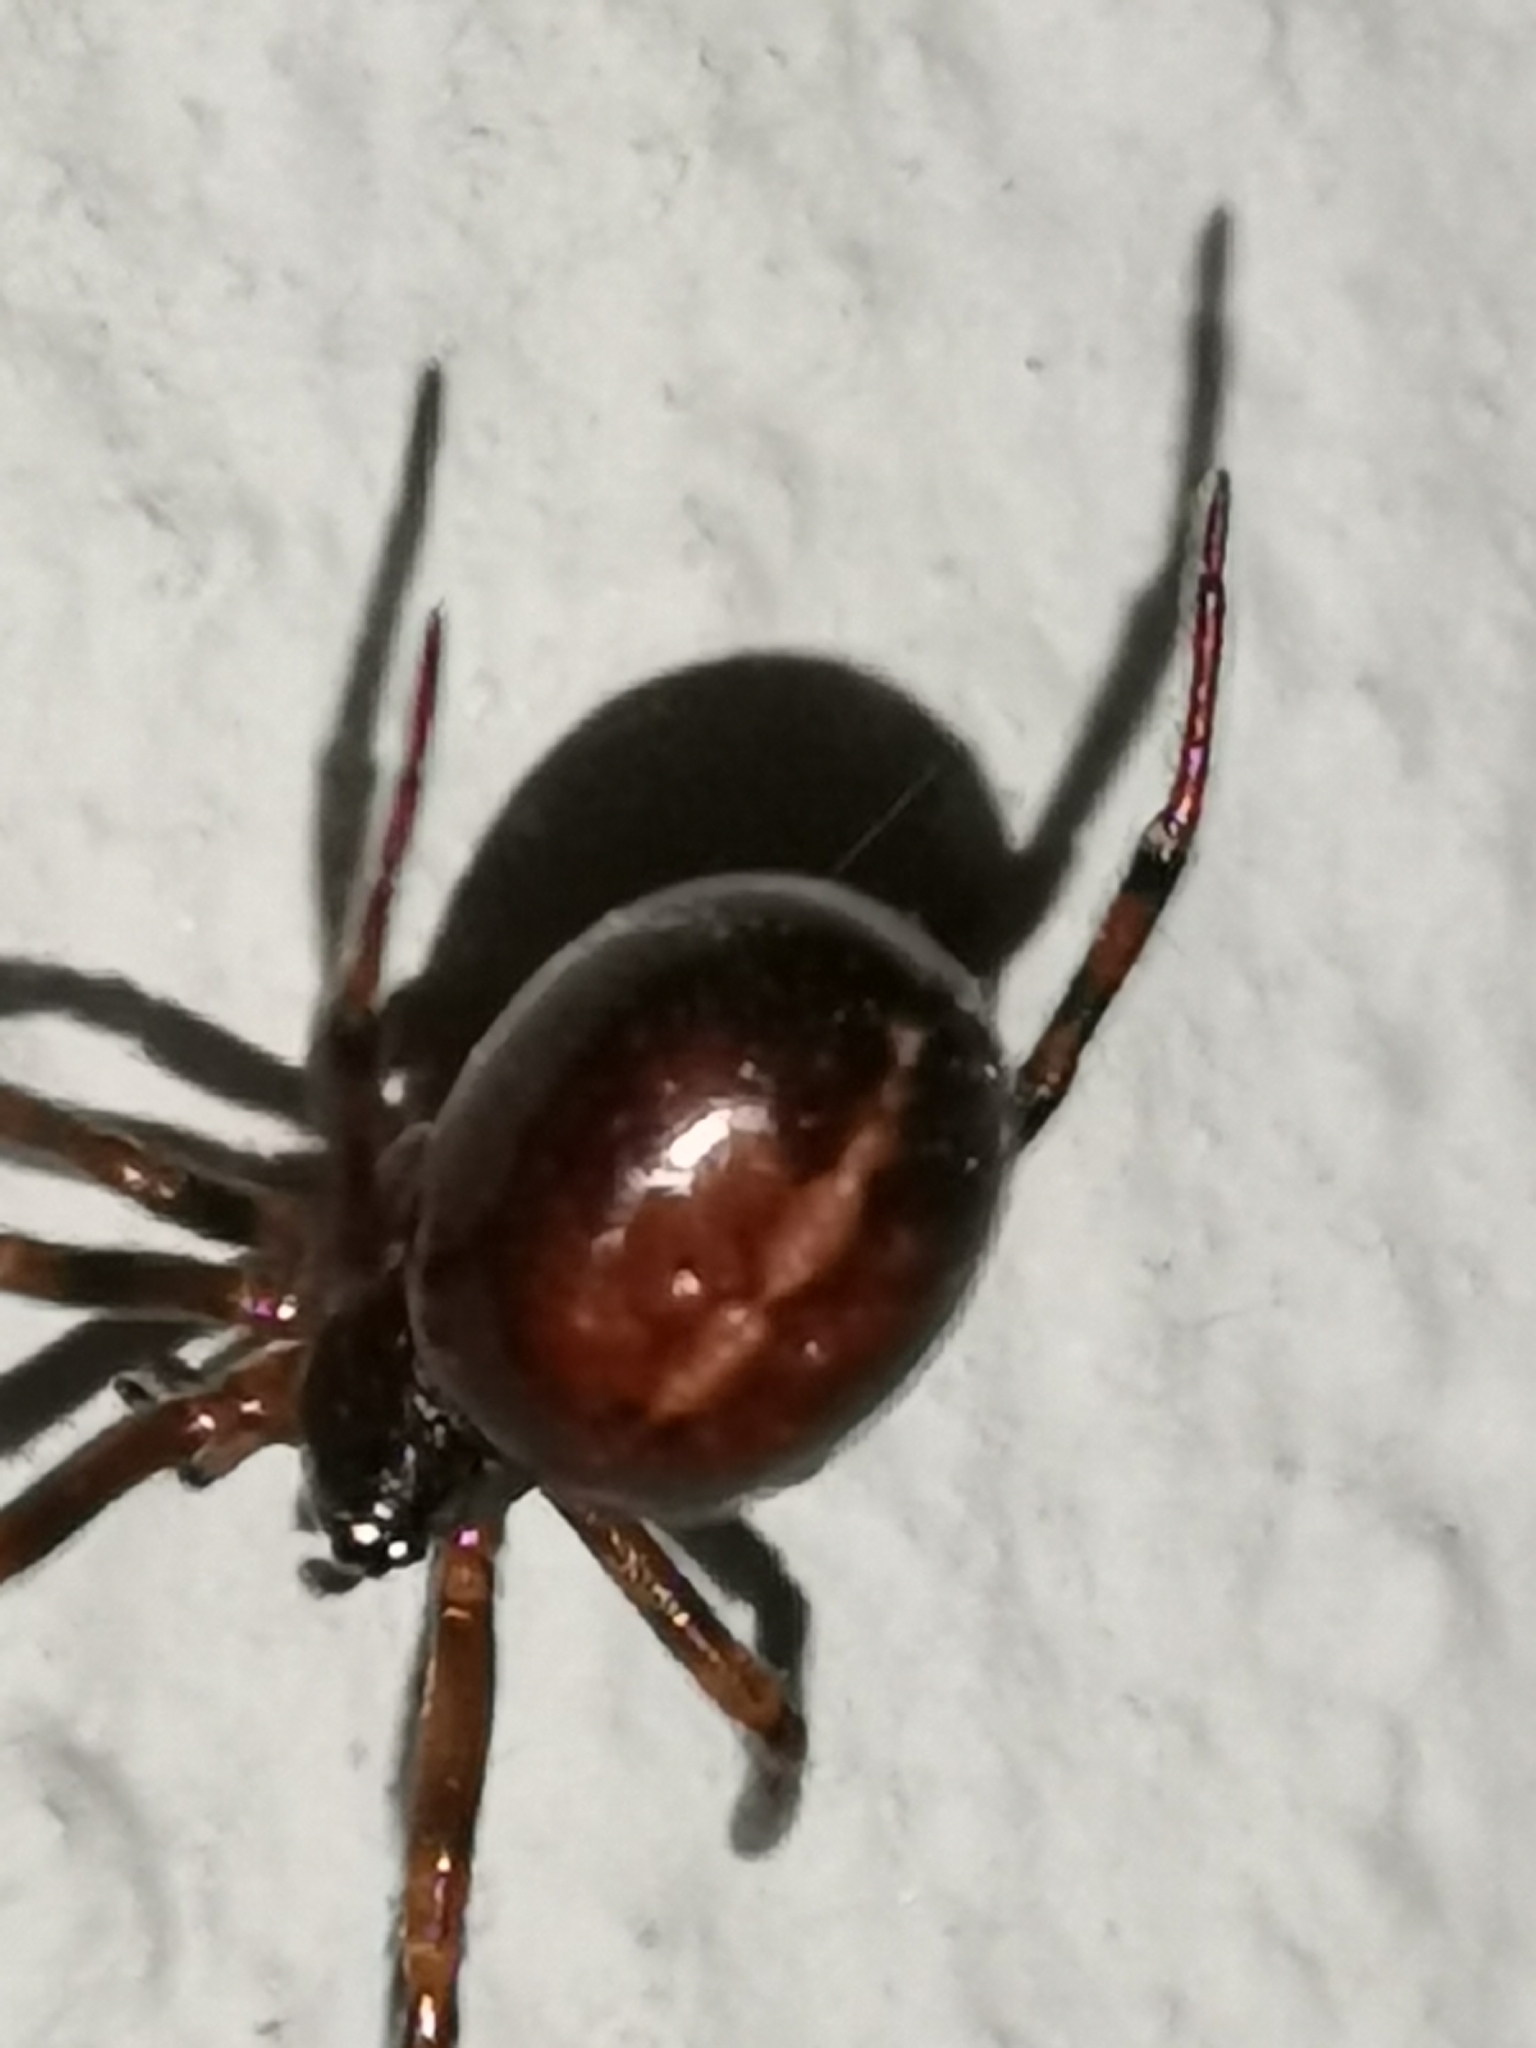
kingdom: Animalia
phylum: Arthropoda
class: Arachnida
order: Araneae
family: Theridiidae
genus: Steatoda
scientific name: Steatoda bipunctata
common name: False widow
